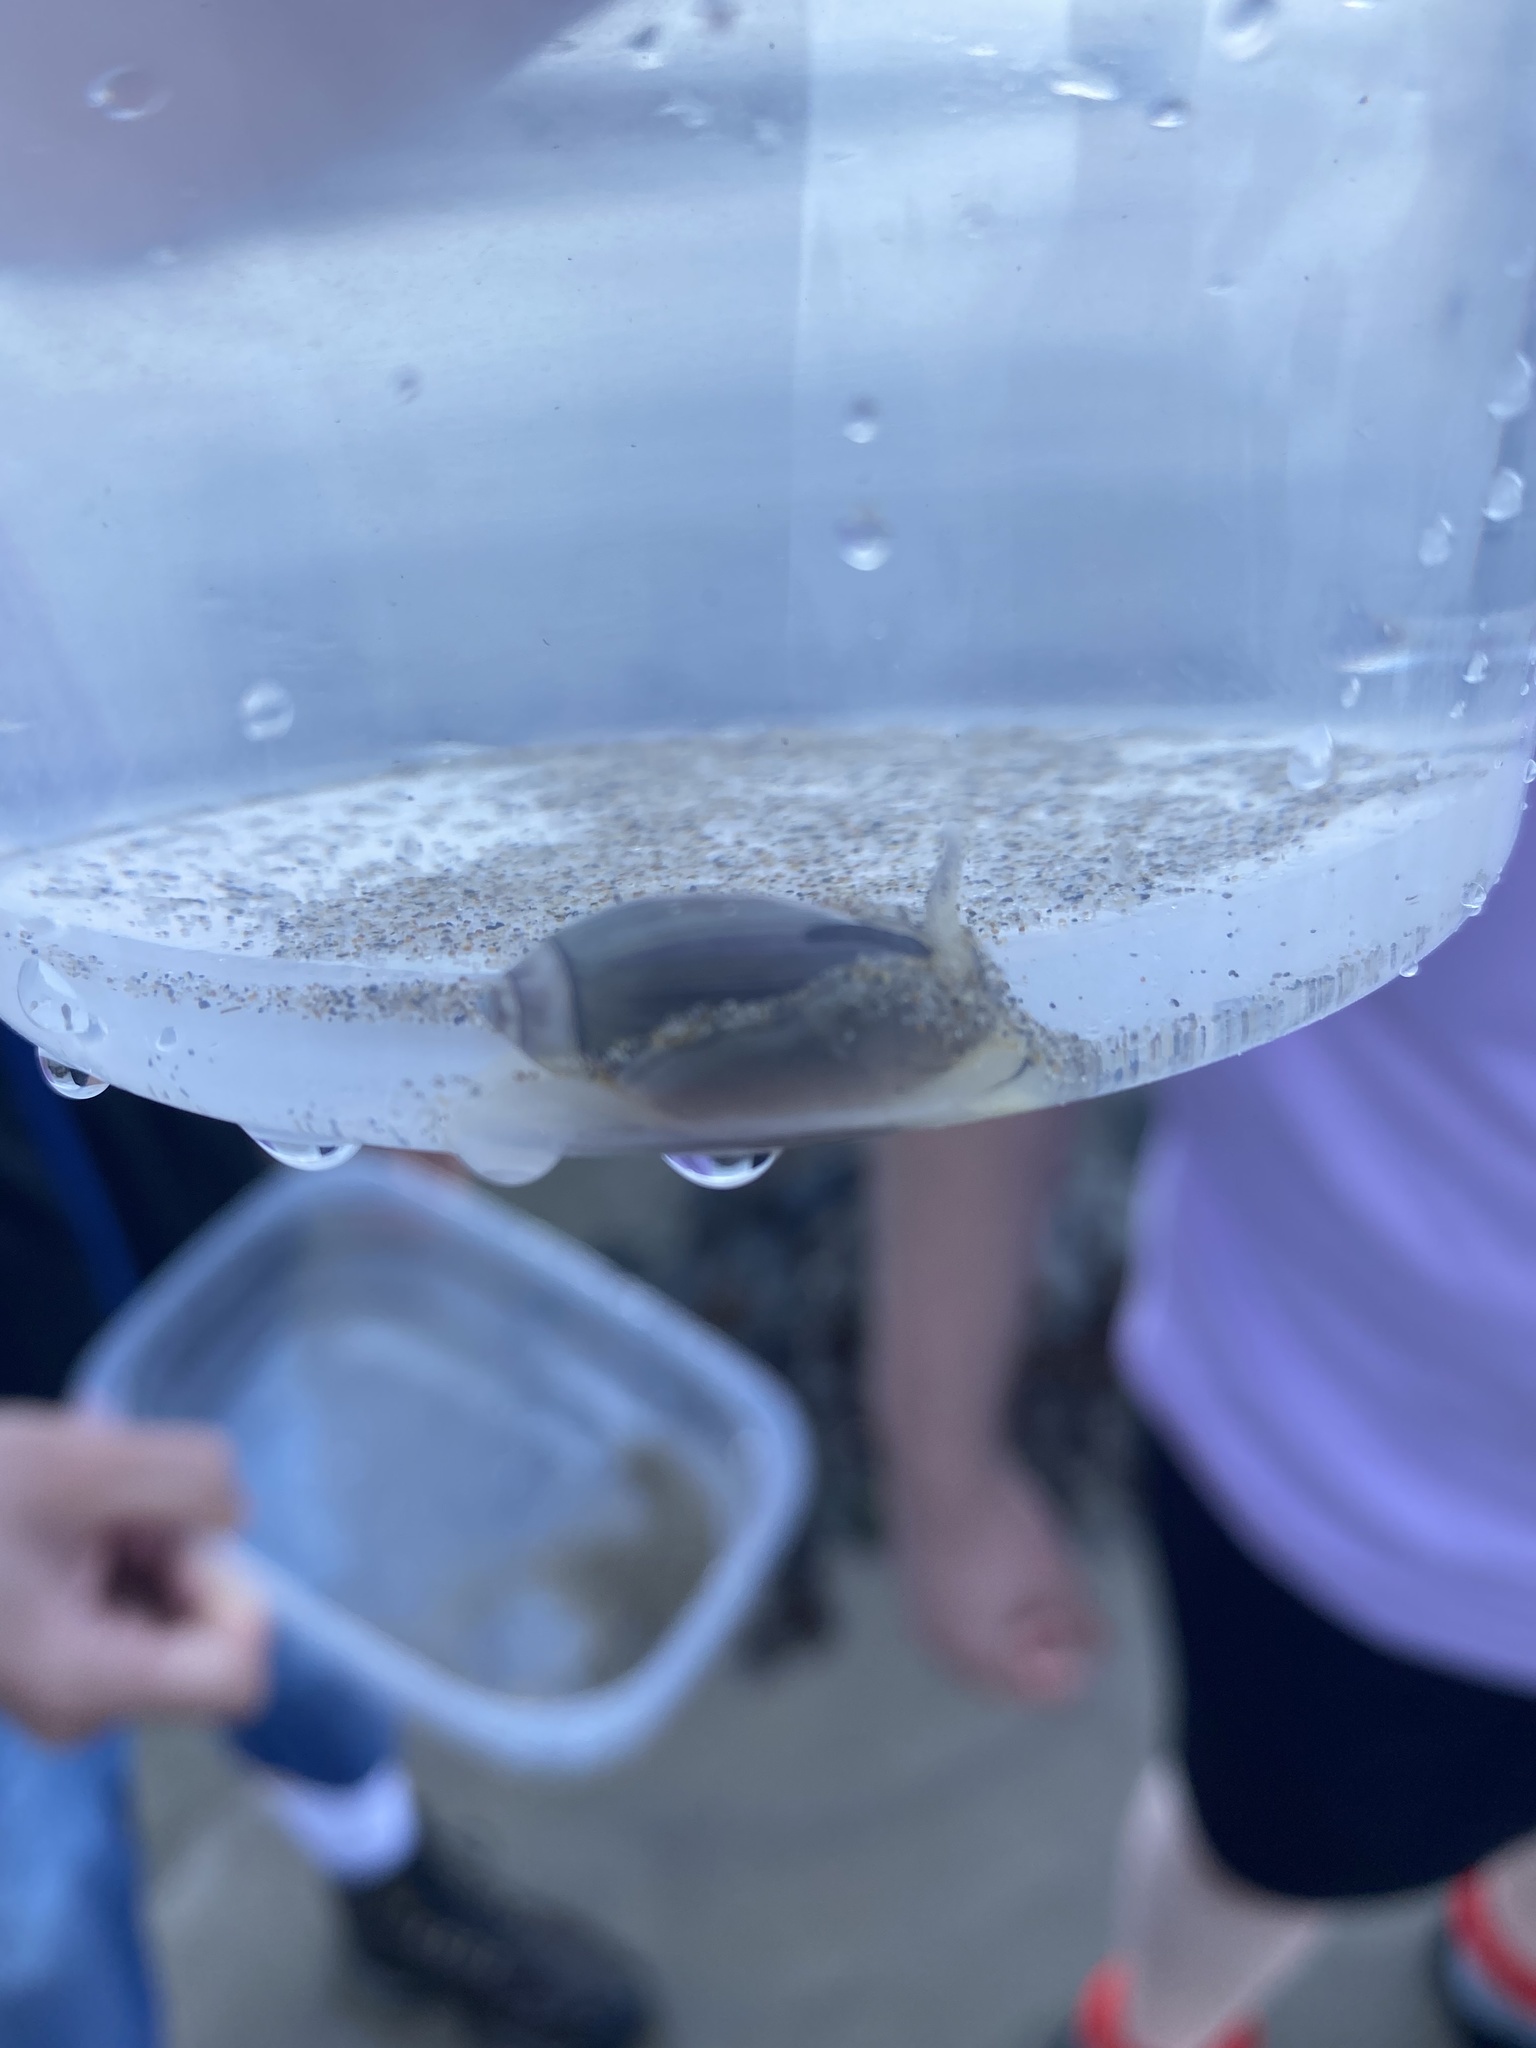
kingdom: Animalia
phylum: Mollusca
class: Gastropoda
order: Neogastropoda
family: Olividae
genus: Callianax
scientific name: Callianax biplicata
